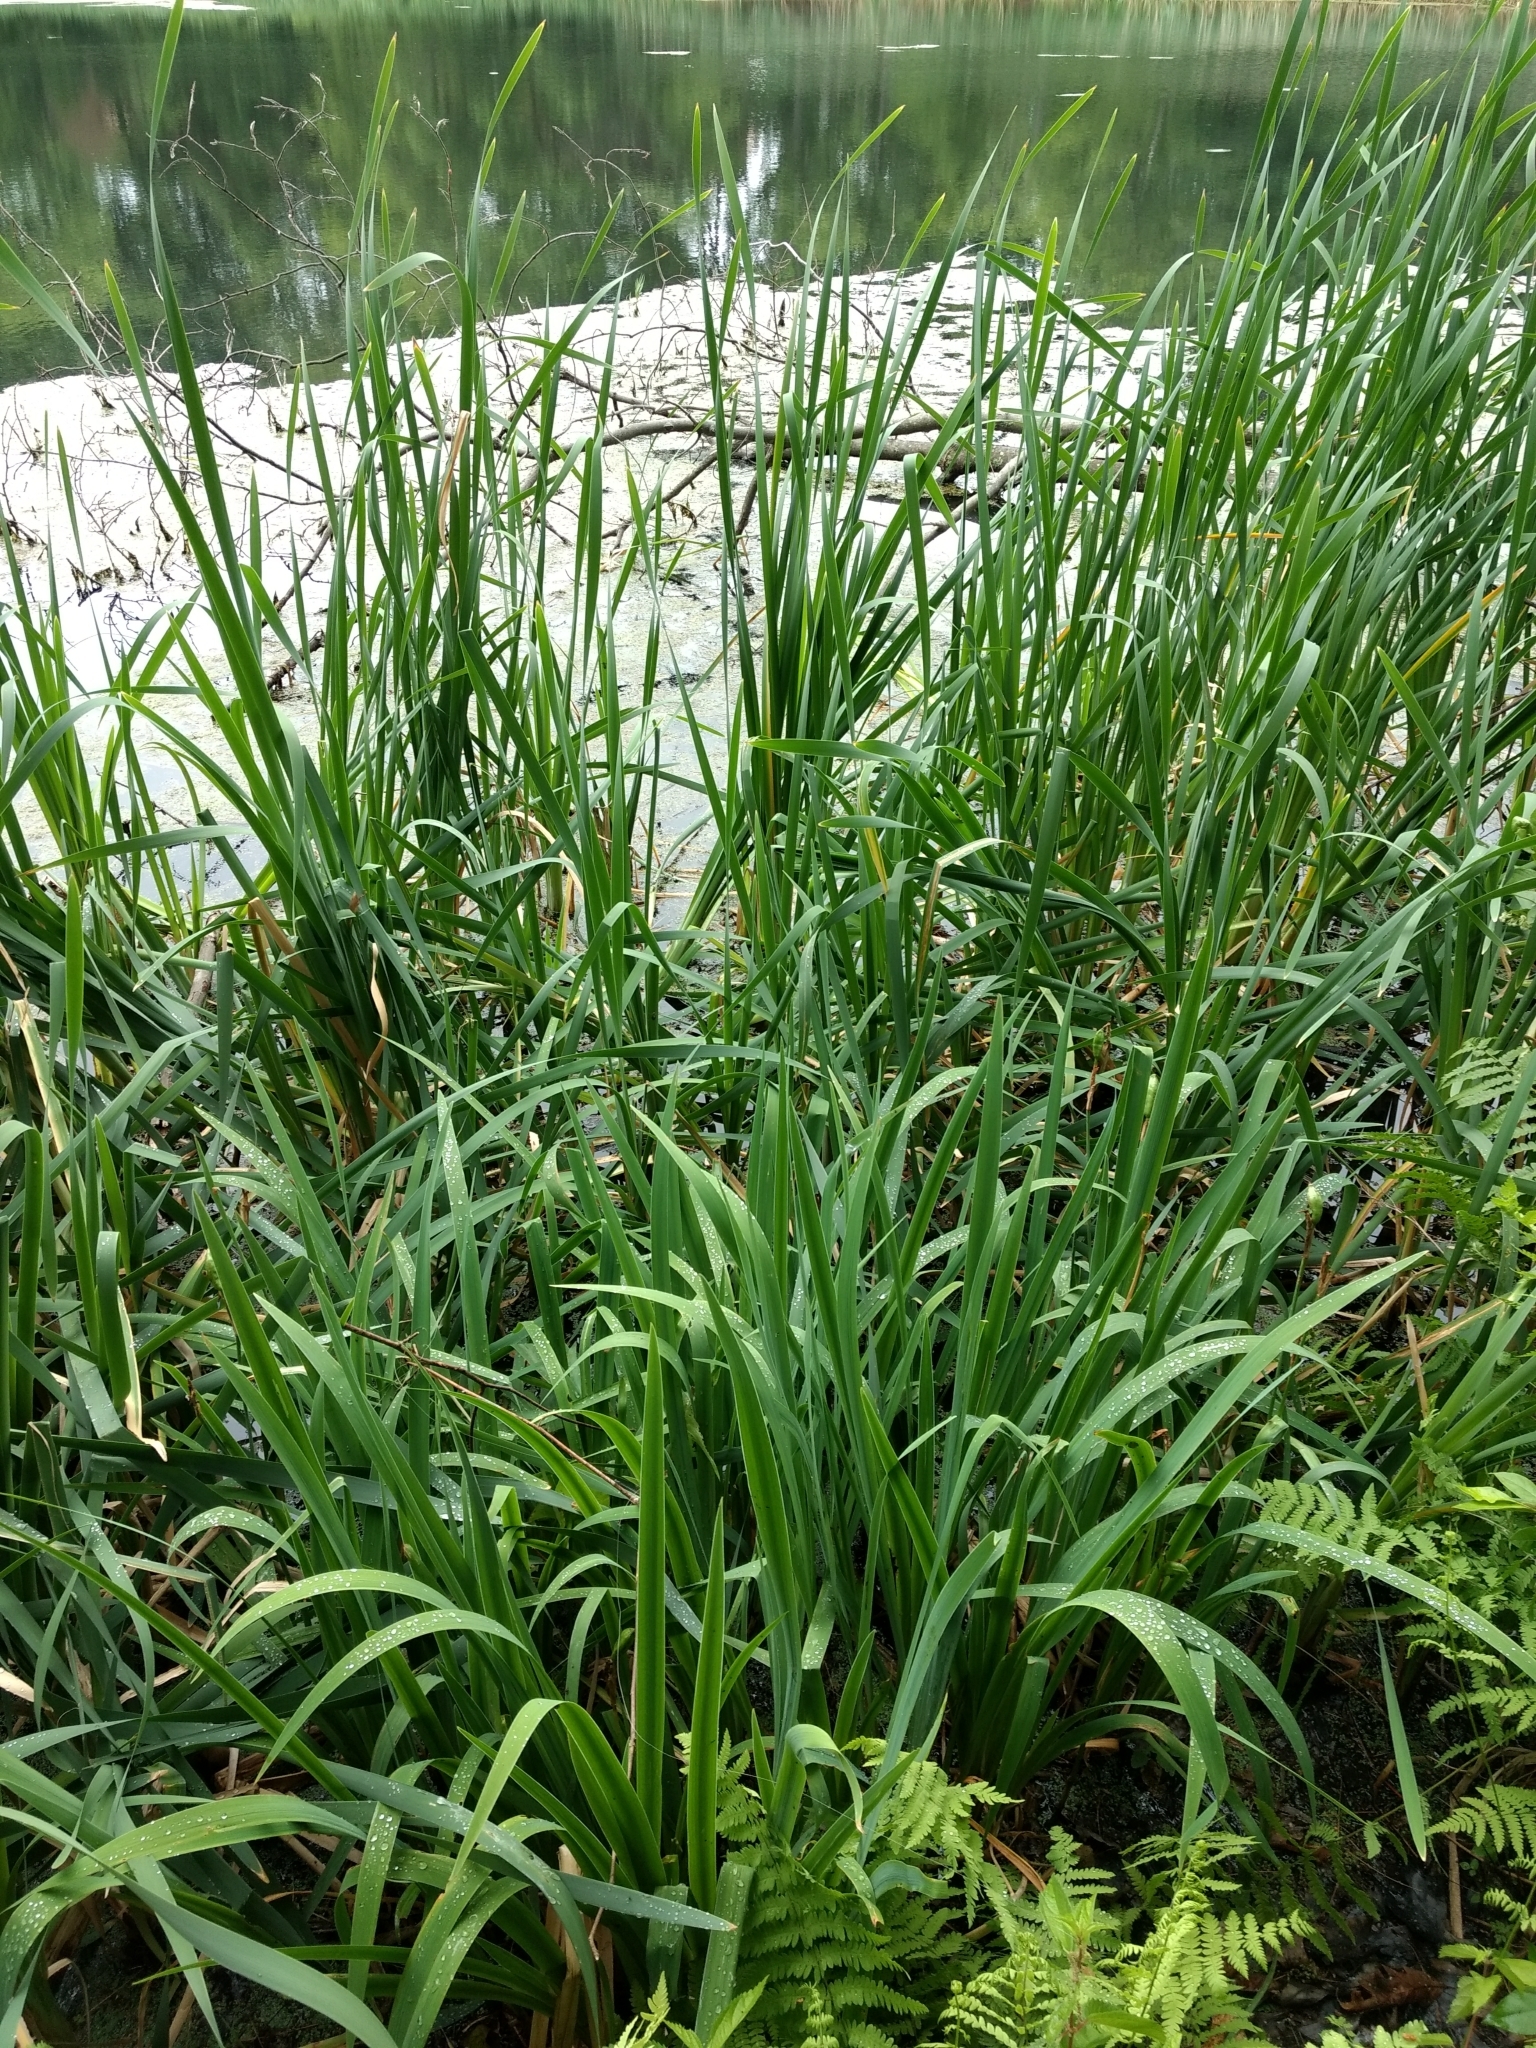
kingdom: Plantae
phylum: Tracheophyta
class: Liliopsida
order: Poales
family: Typhaceae
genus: Typha
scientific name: Typha latifolia
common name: Broadleaf cattail
